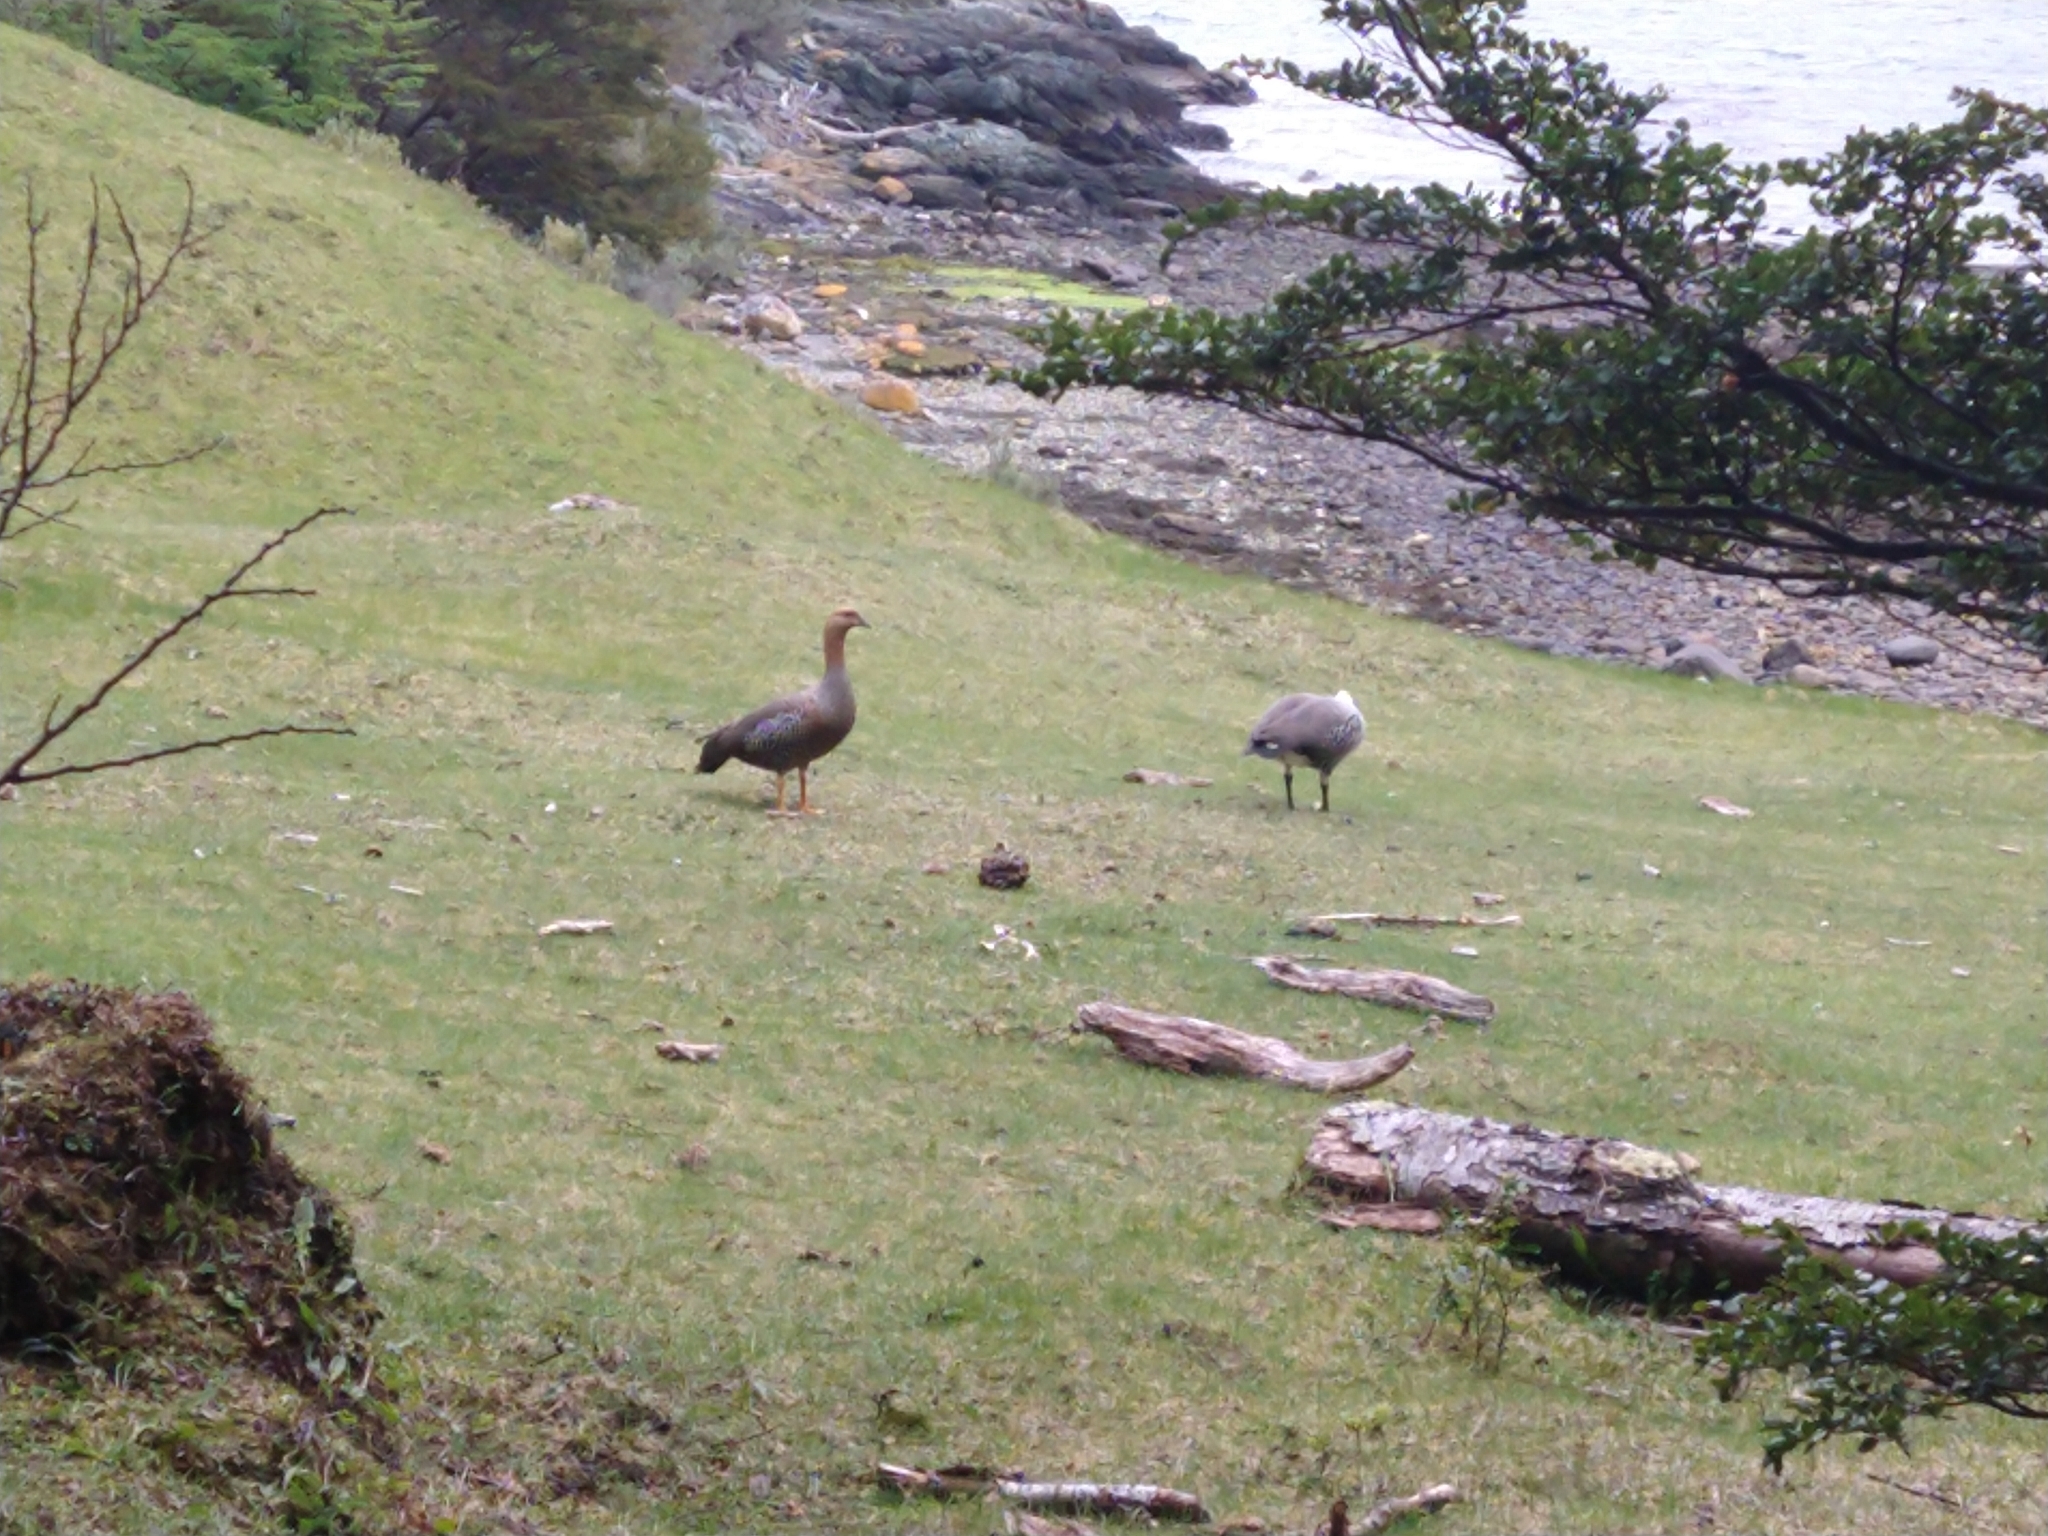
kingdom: Animalia
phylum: Chordata
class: Aves
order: Anseriformes
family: Anatidae
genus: Chloephaga
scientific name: Chloephaga picta
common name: Upland goose
